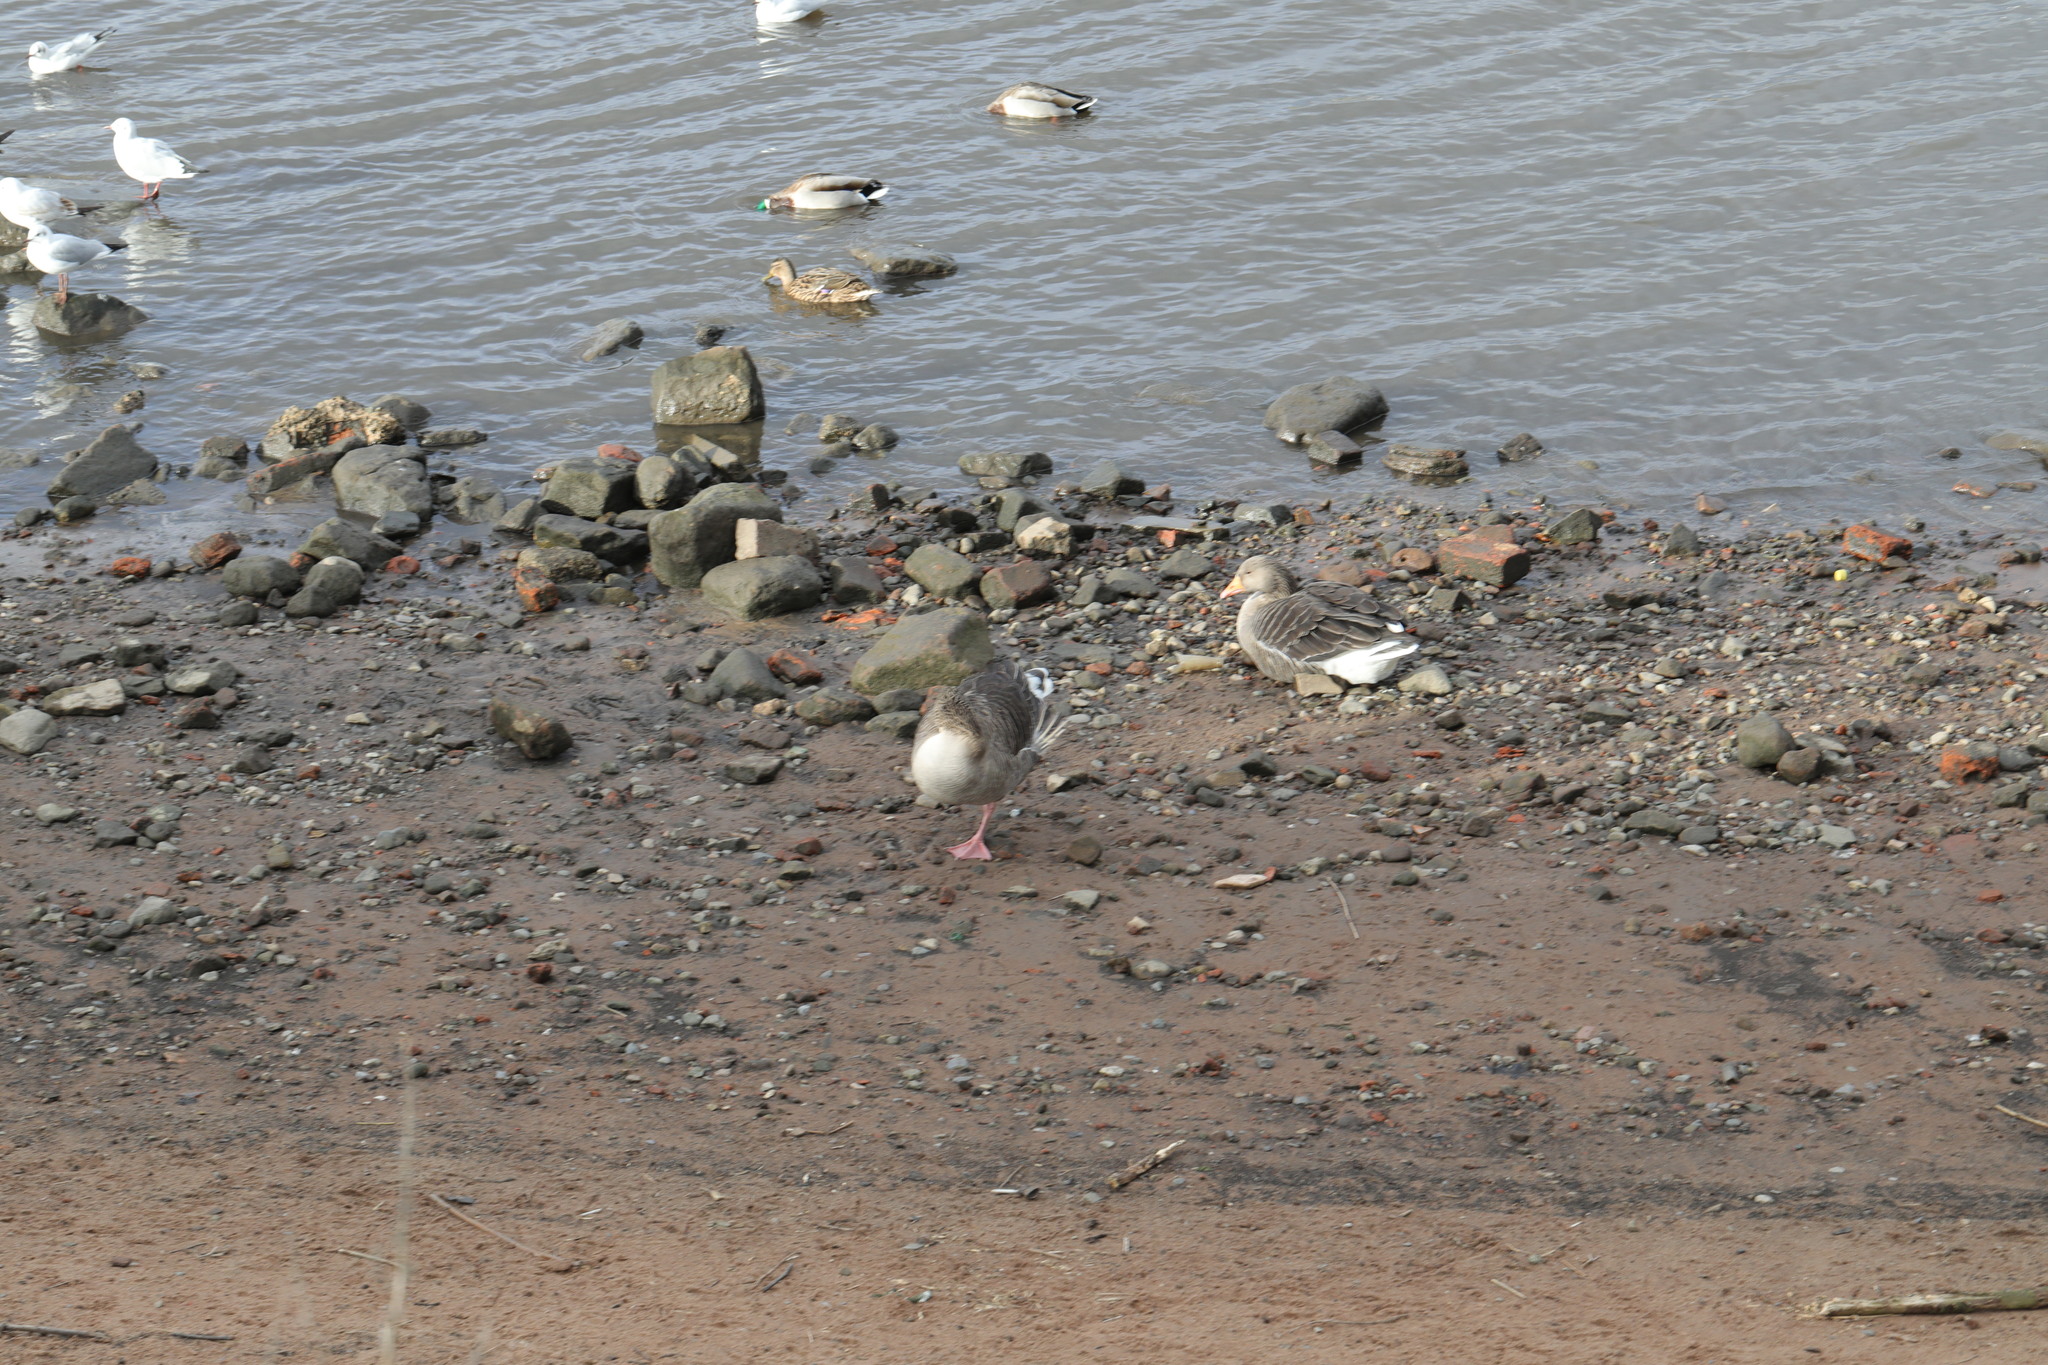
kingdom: Animalia
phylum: Chordata
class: Aves
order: Anseriformes
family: Anatidae
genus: Anser
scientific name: Anser anser
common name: Greylag goose
